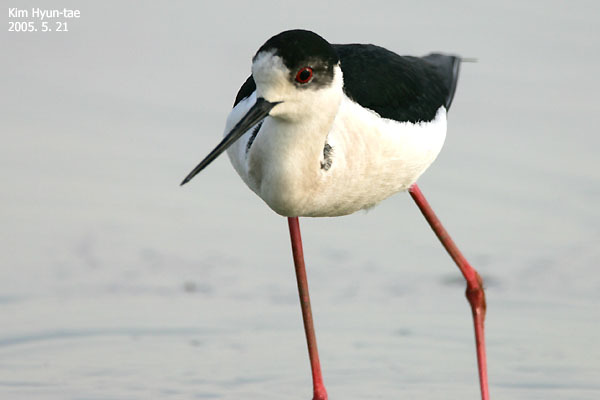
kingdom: Animalia
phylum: Chordata
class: Aves
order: Charadriiformes
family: Recurvirostridae
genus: Himantopus
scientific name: Himantopus himantopus
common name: Black-winged stilt
